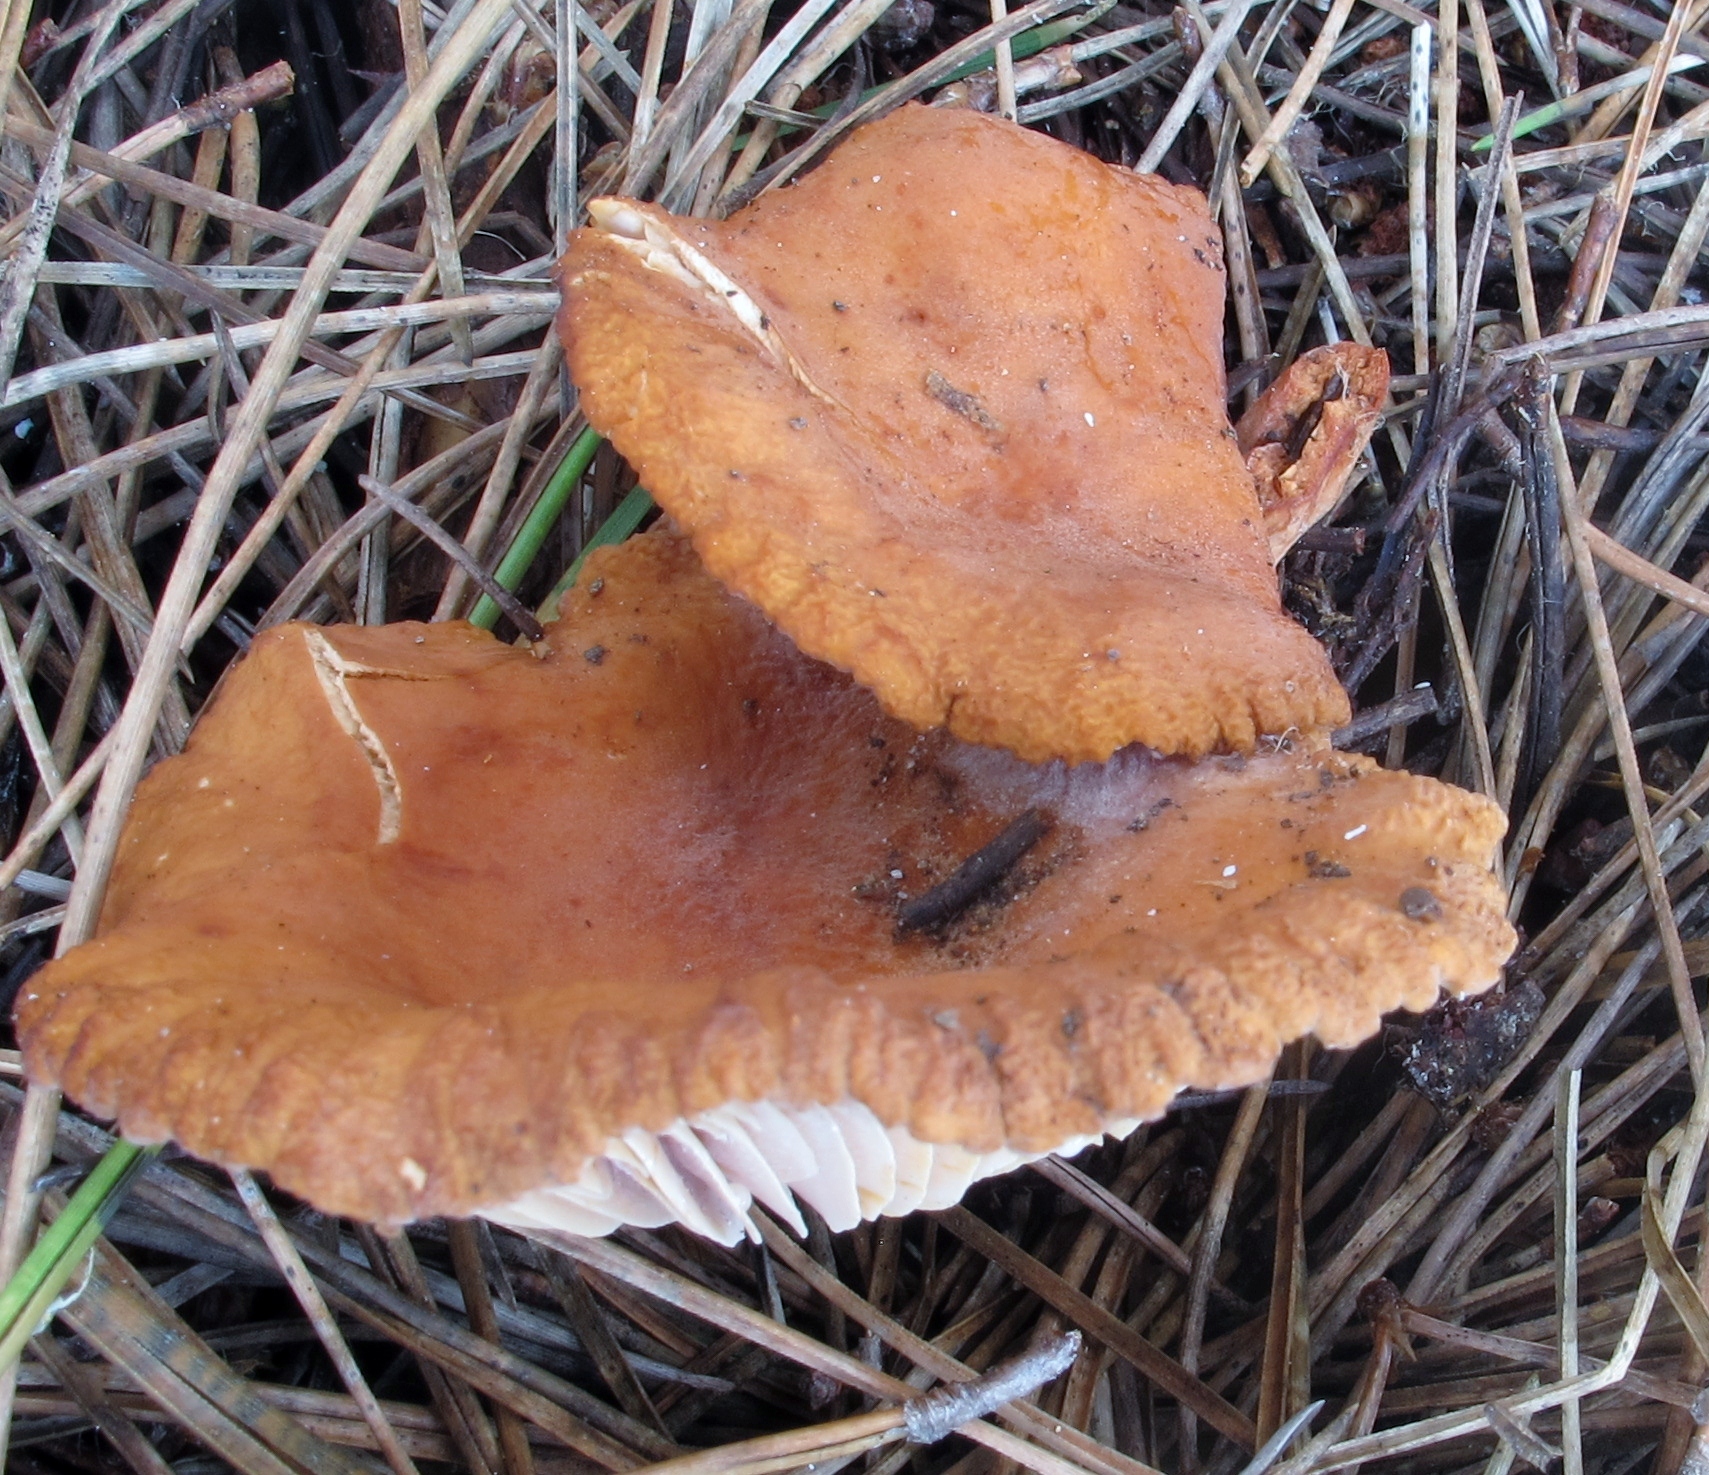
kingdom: Fungi
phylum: Basidiomycota
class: Agaricomycetes
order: Russulales
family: Russulaceae
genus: Lactarius
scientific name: Lactarius rubidus
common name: Candy cap
